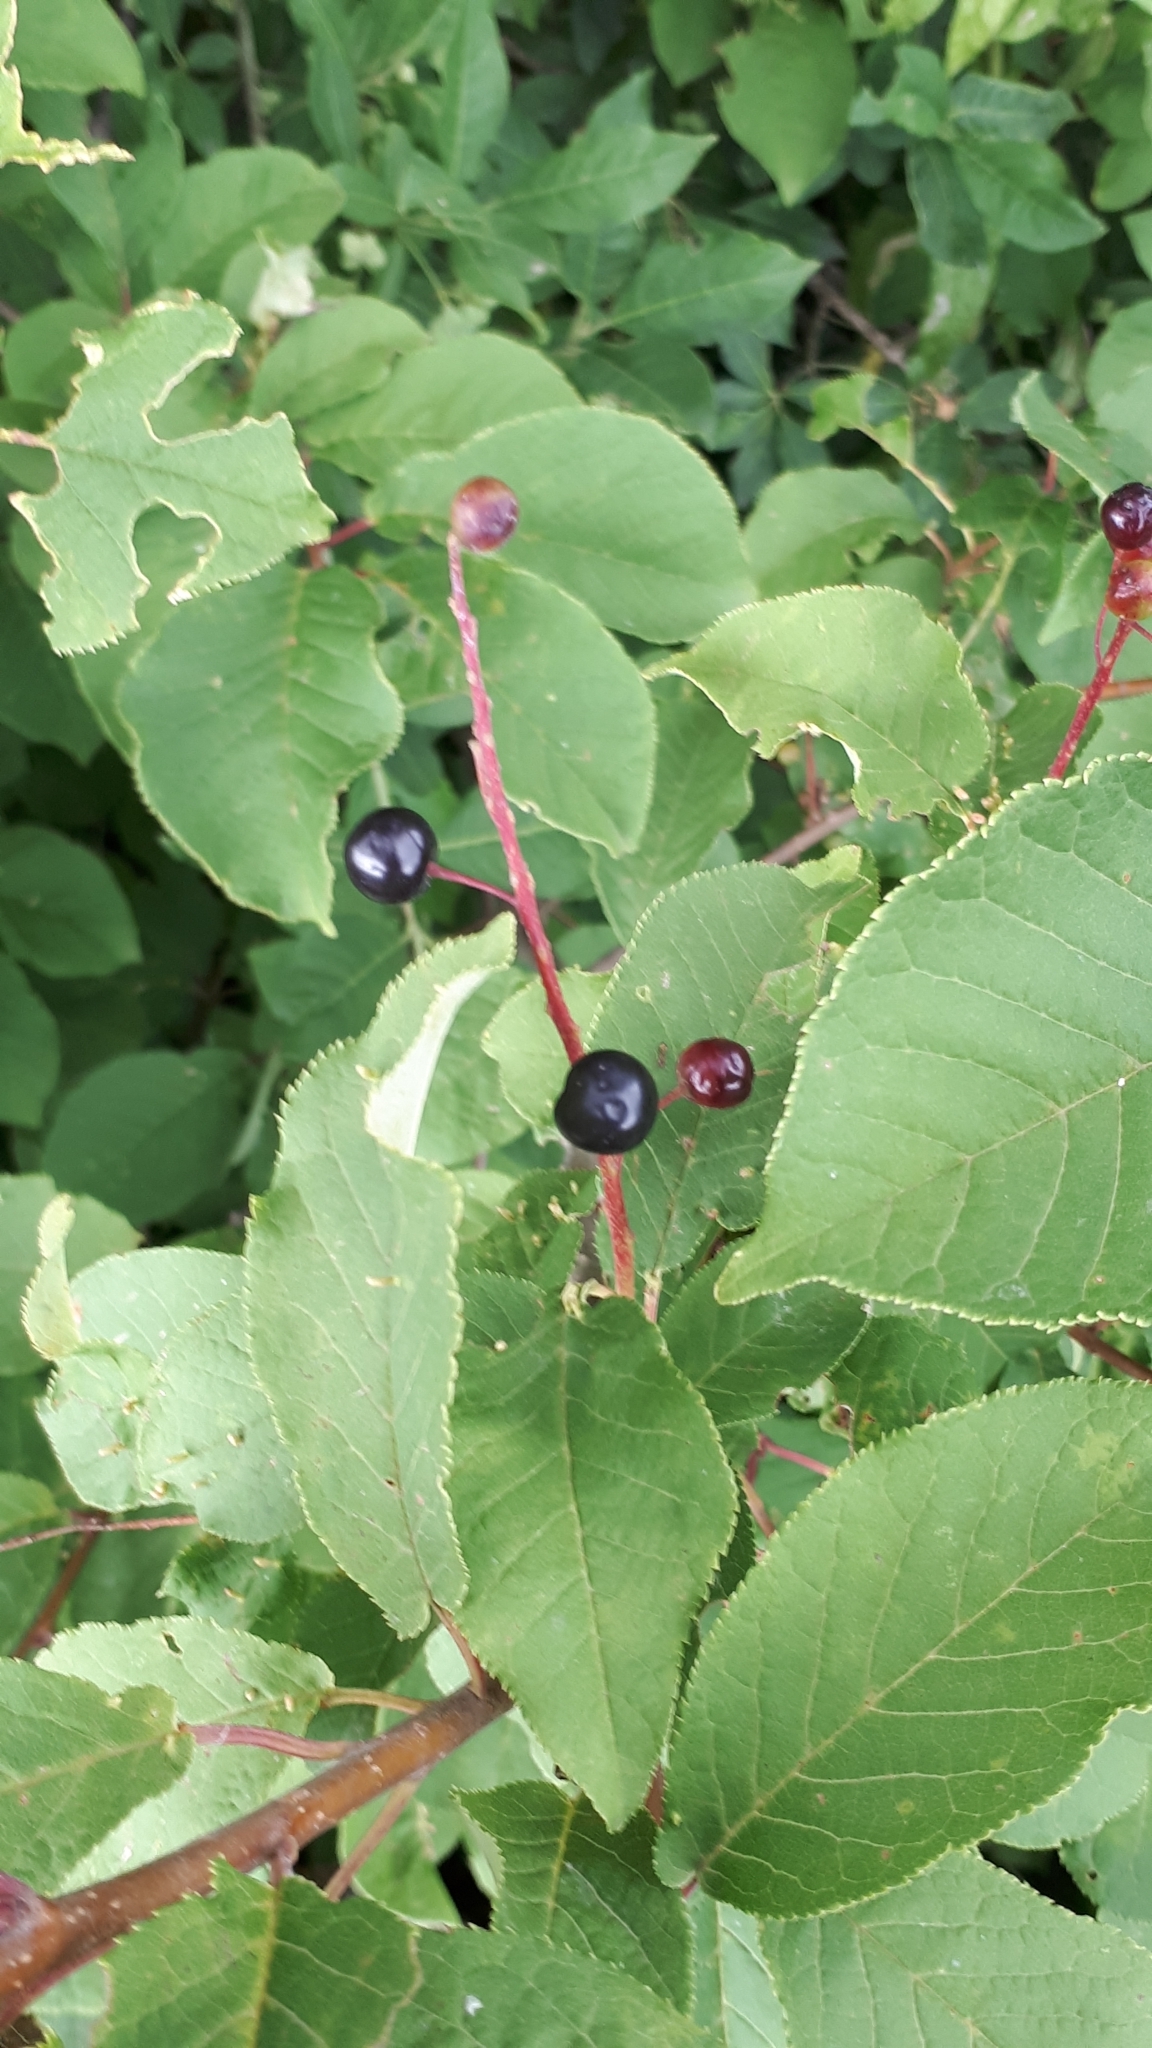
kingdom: Plantae
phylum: Tracheophyta
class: Magnoliopsida
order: Rosales
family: Rosaceae
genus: Prunus
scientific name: Prunus padus
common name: Bird cherry
